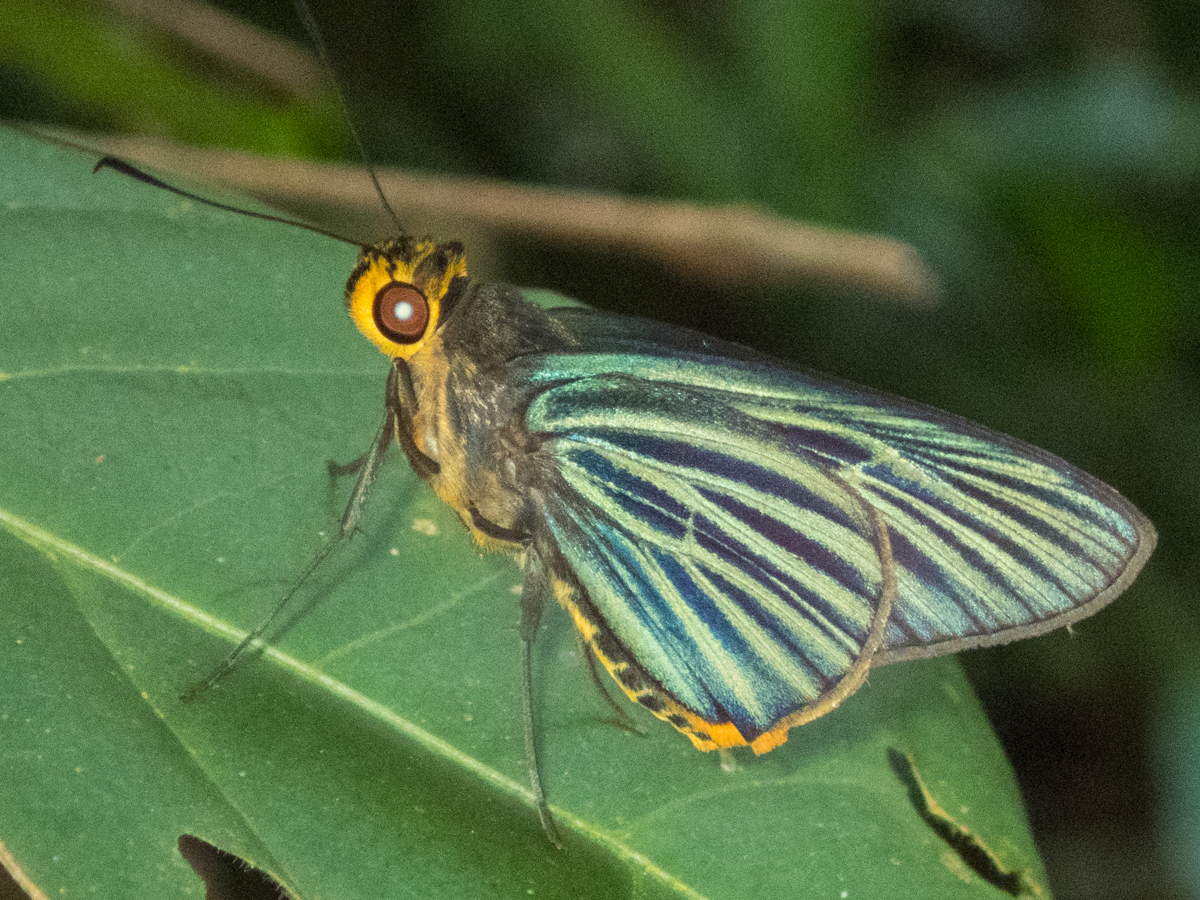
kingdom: Animalia
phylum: Arthropoda
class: Insecta
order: Lepidoptera
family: Hesperiidae
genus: Pirdana
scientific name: Pirdana hyela
